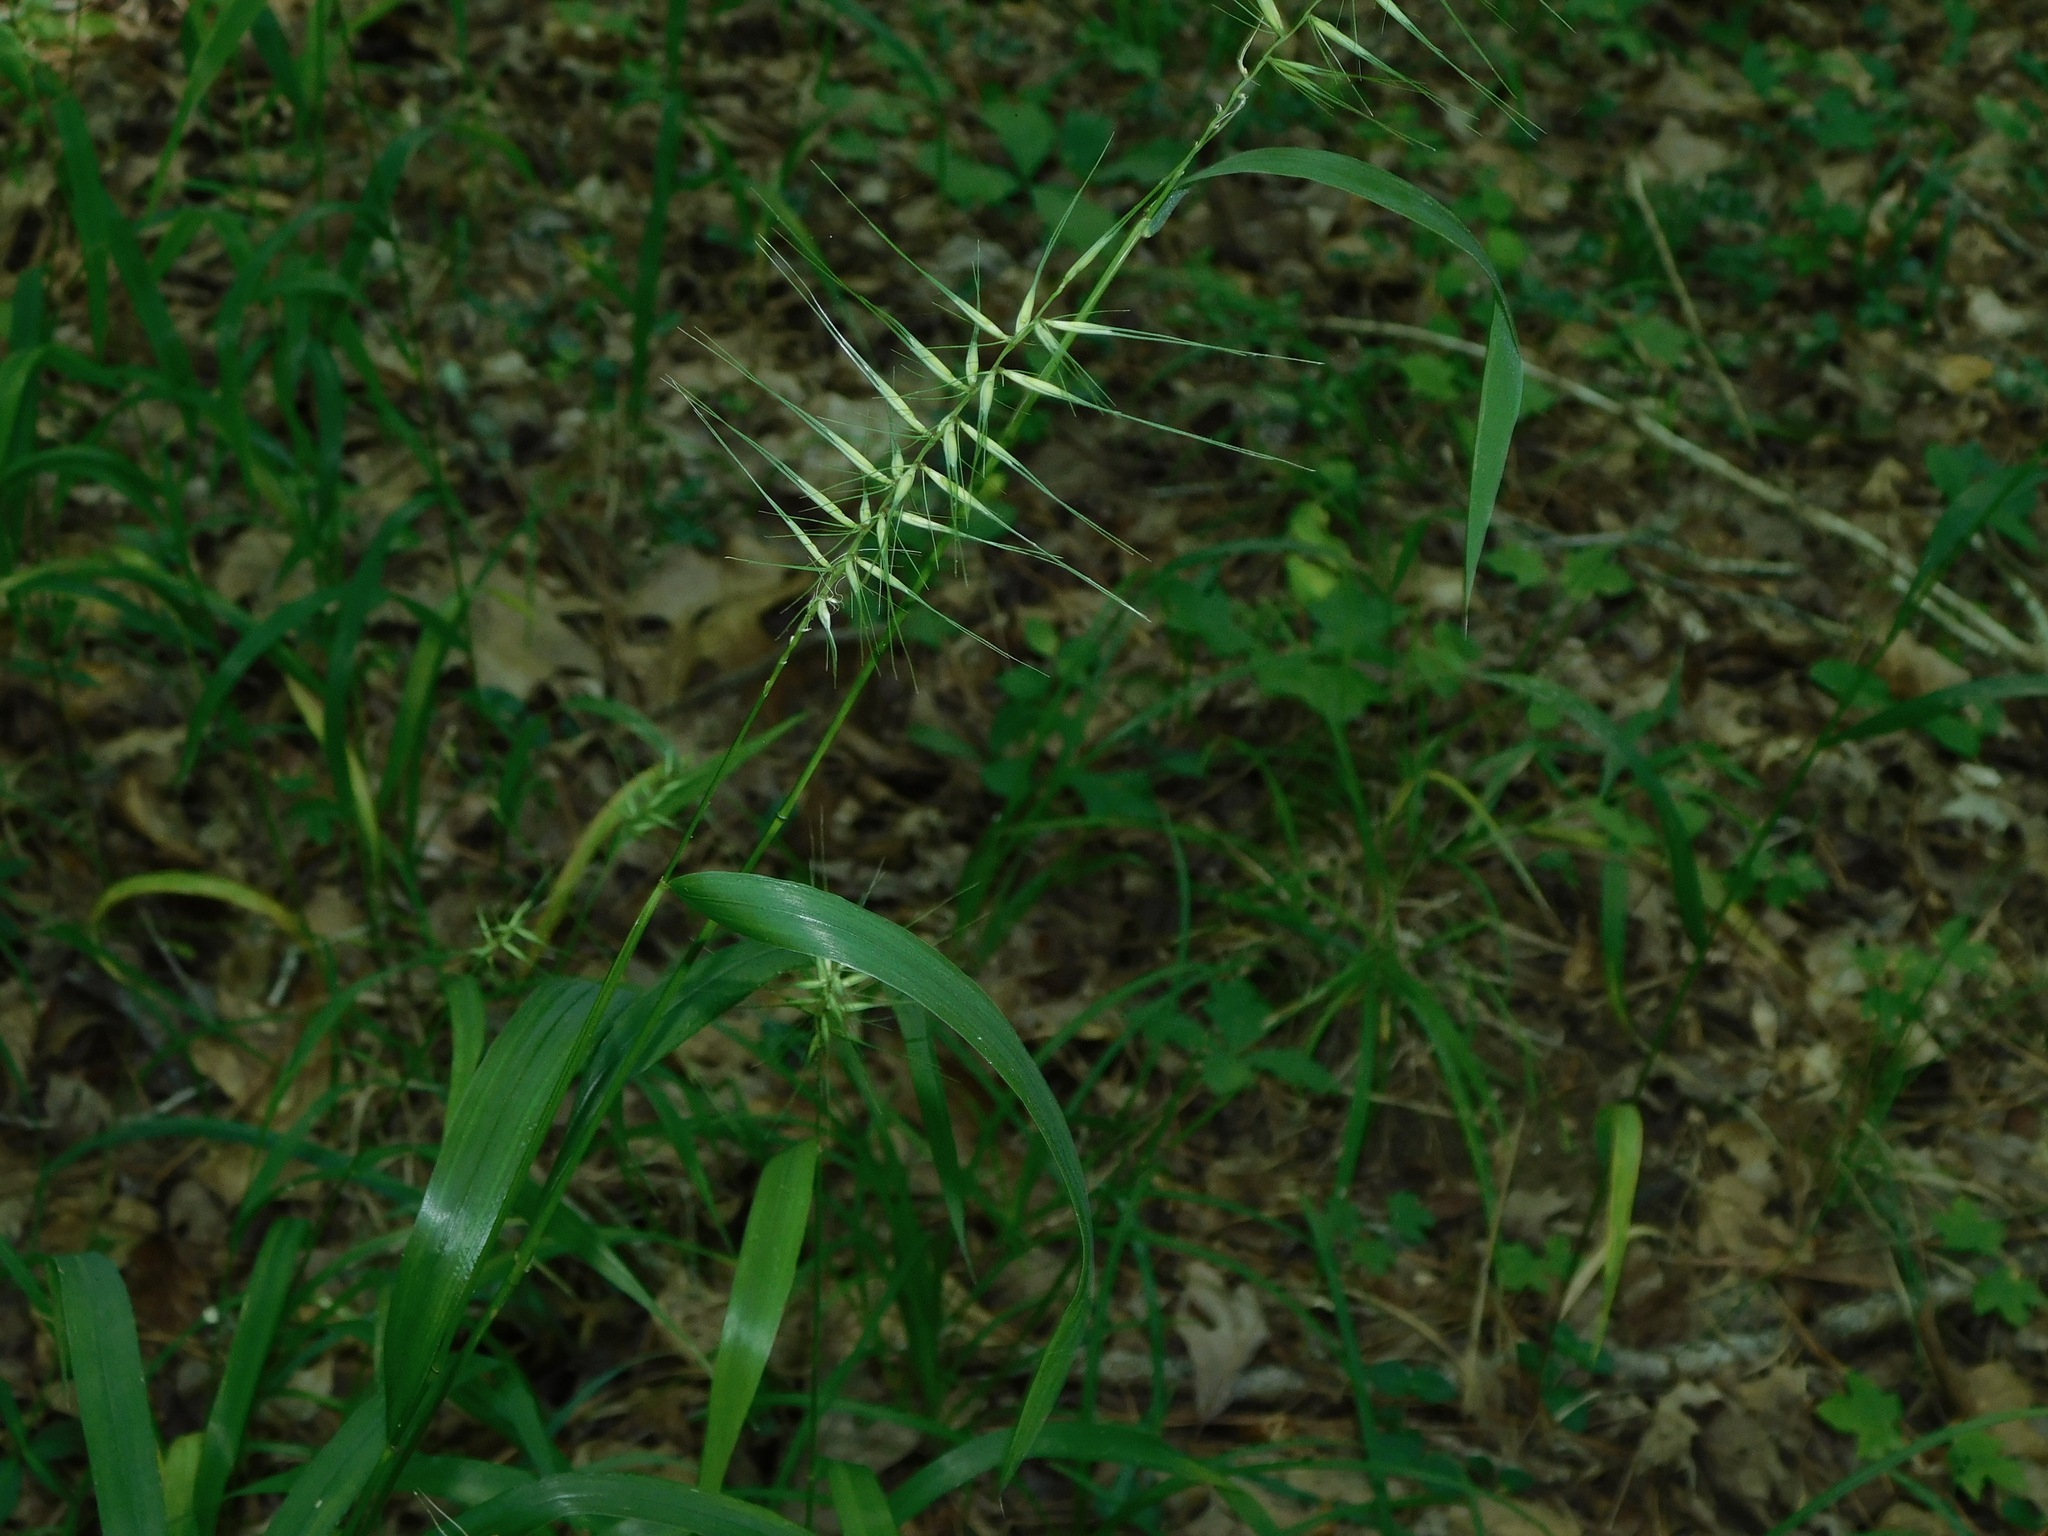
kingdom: Plantae
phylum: Tracheophyta
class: Liliopsida
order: Poales
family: Poaceae
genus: Elymus
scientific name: Elymus hystrix
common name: Bottlebrush grass
